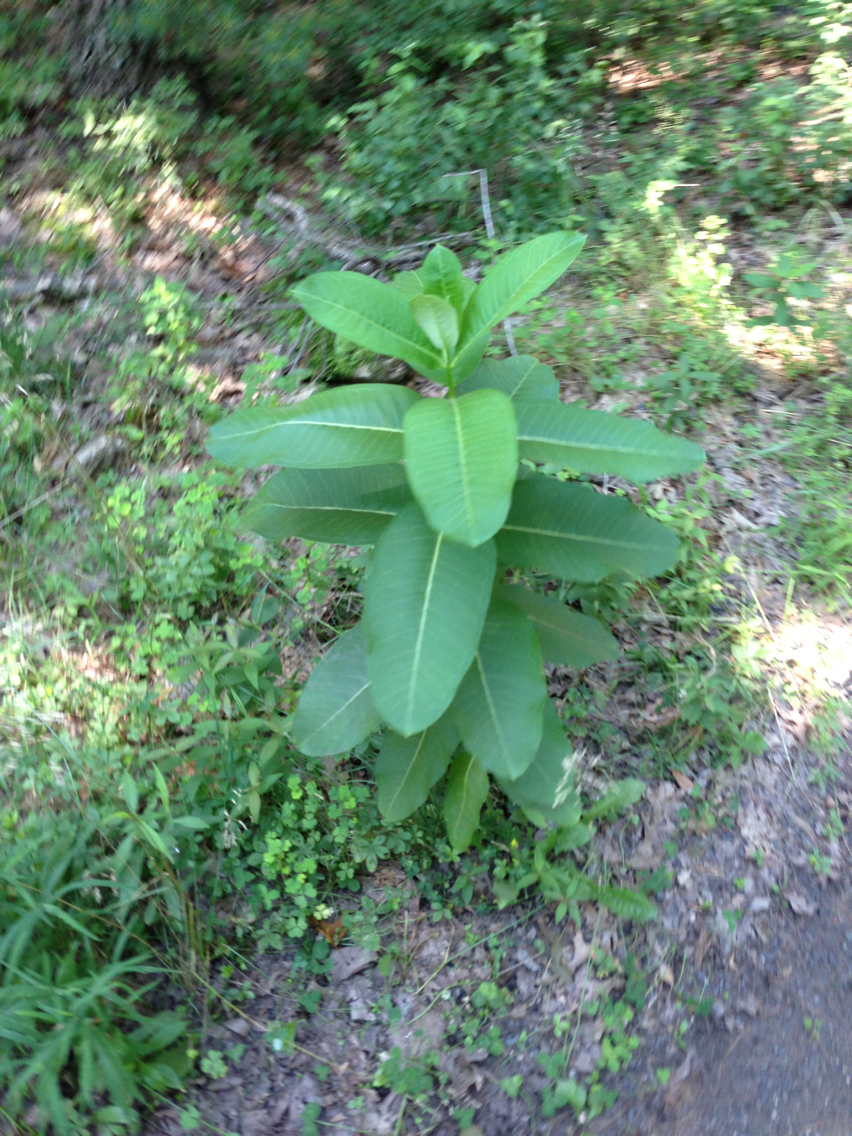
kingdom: Plantae
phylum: Tracheophyta
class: Magnoliopsida
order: Gentianales
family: Apocynaceae
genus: Asclepias
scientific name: Asclepias syriaca
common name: Common milkweed
